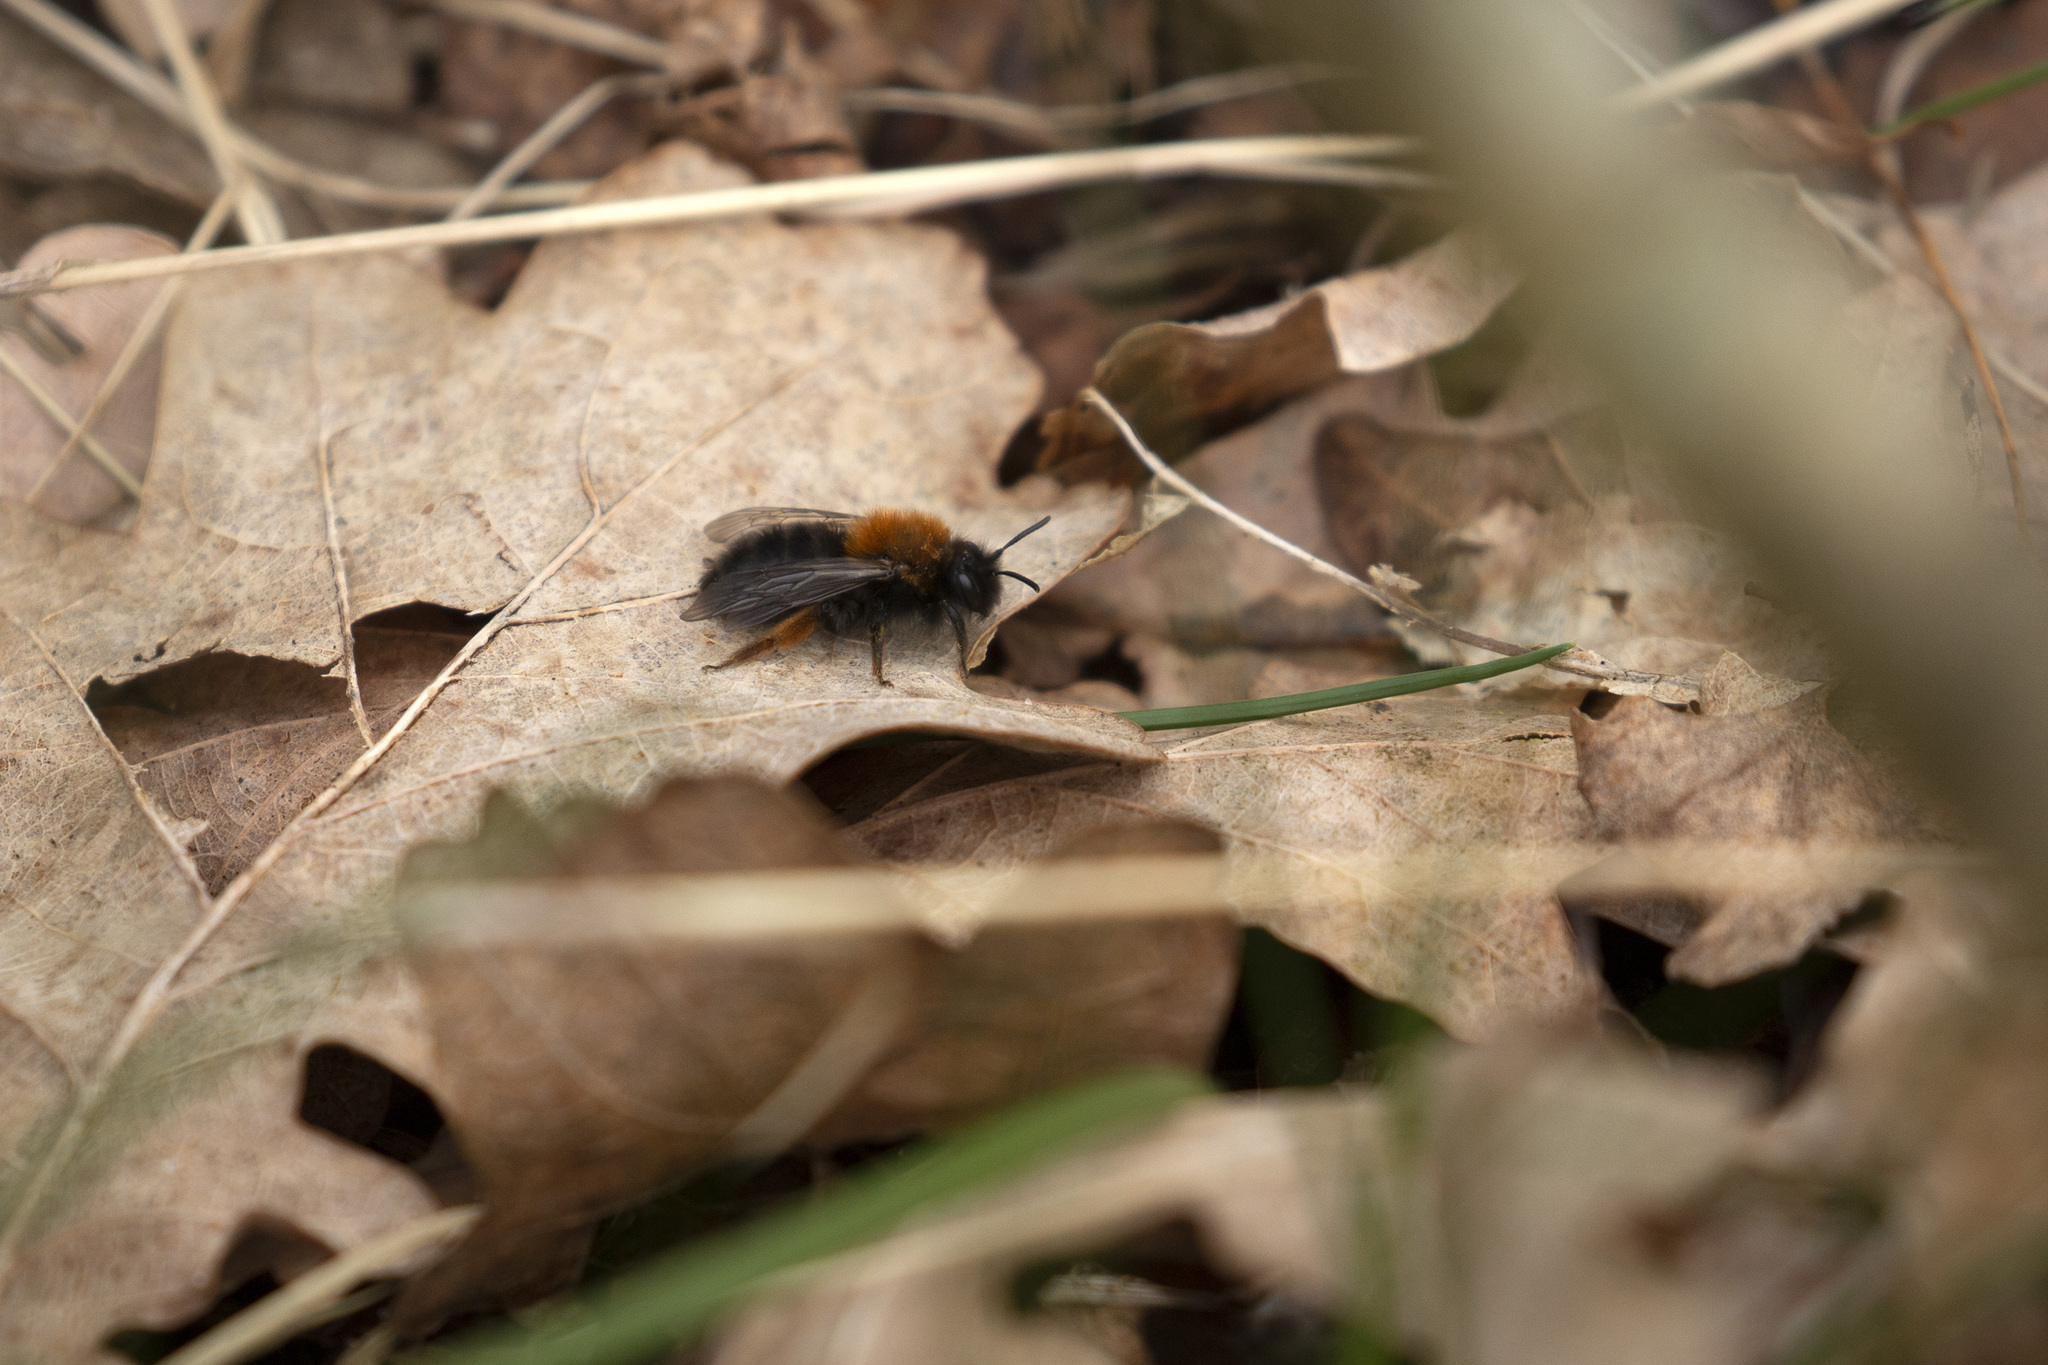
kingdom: Animalia
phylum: Arthropoda
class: Insecta
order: Hymenoptera
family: Andrenidae
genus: Andrena
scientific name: Andrena clarkella
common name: Clarke's mining bee
